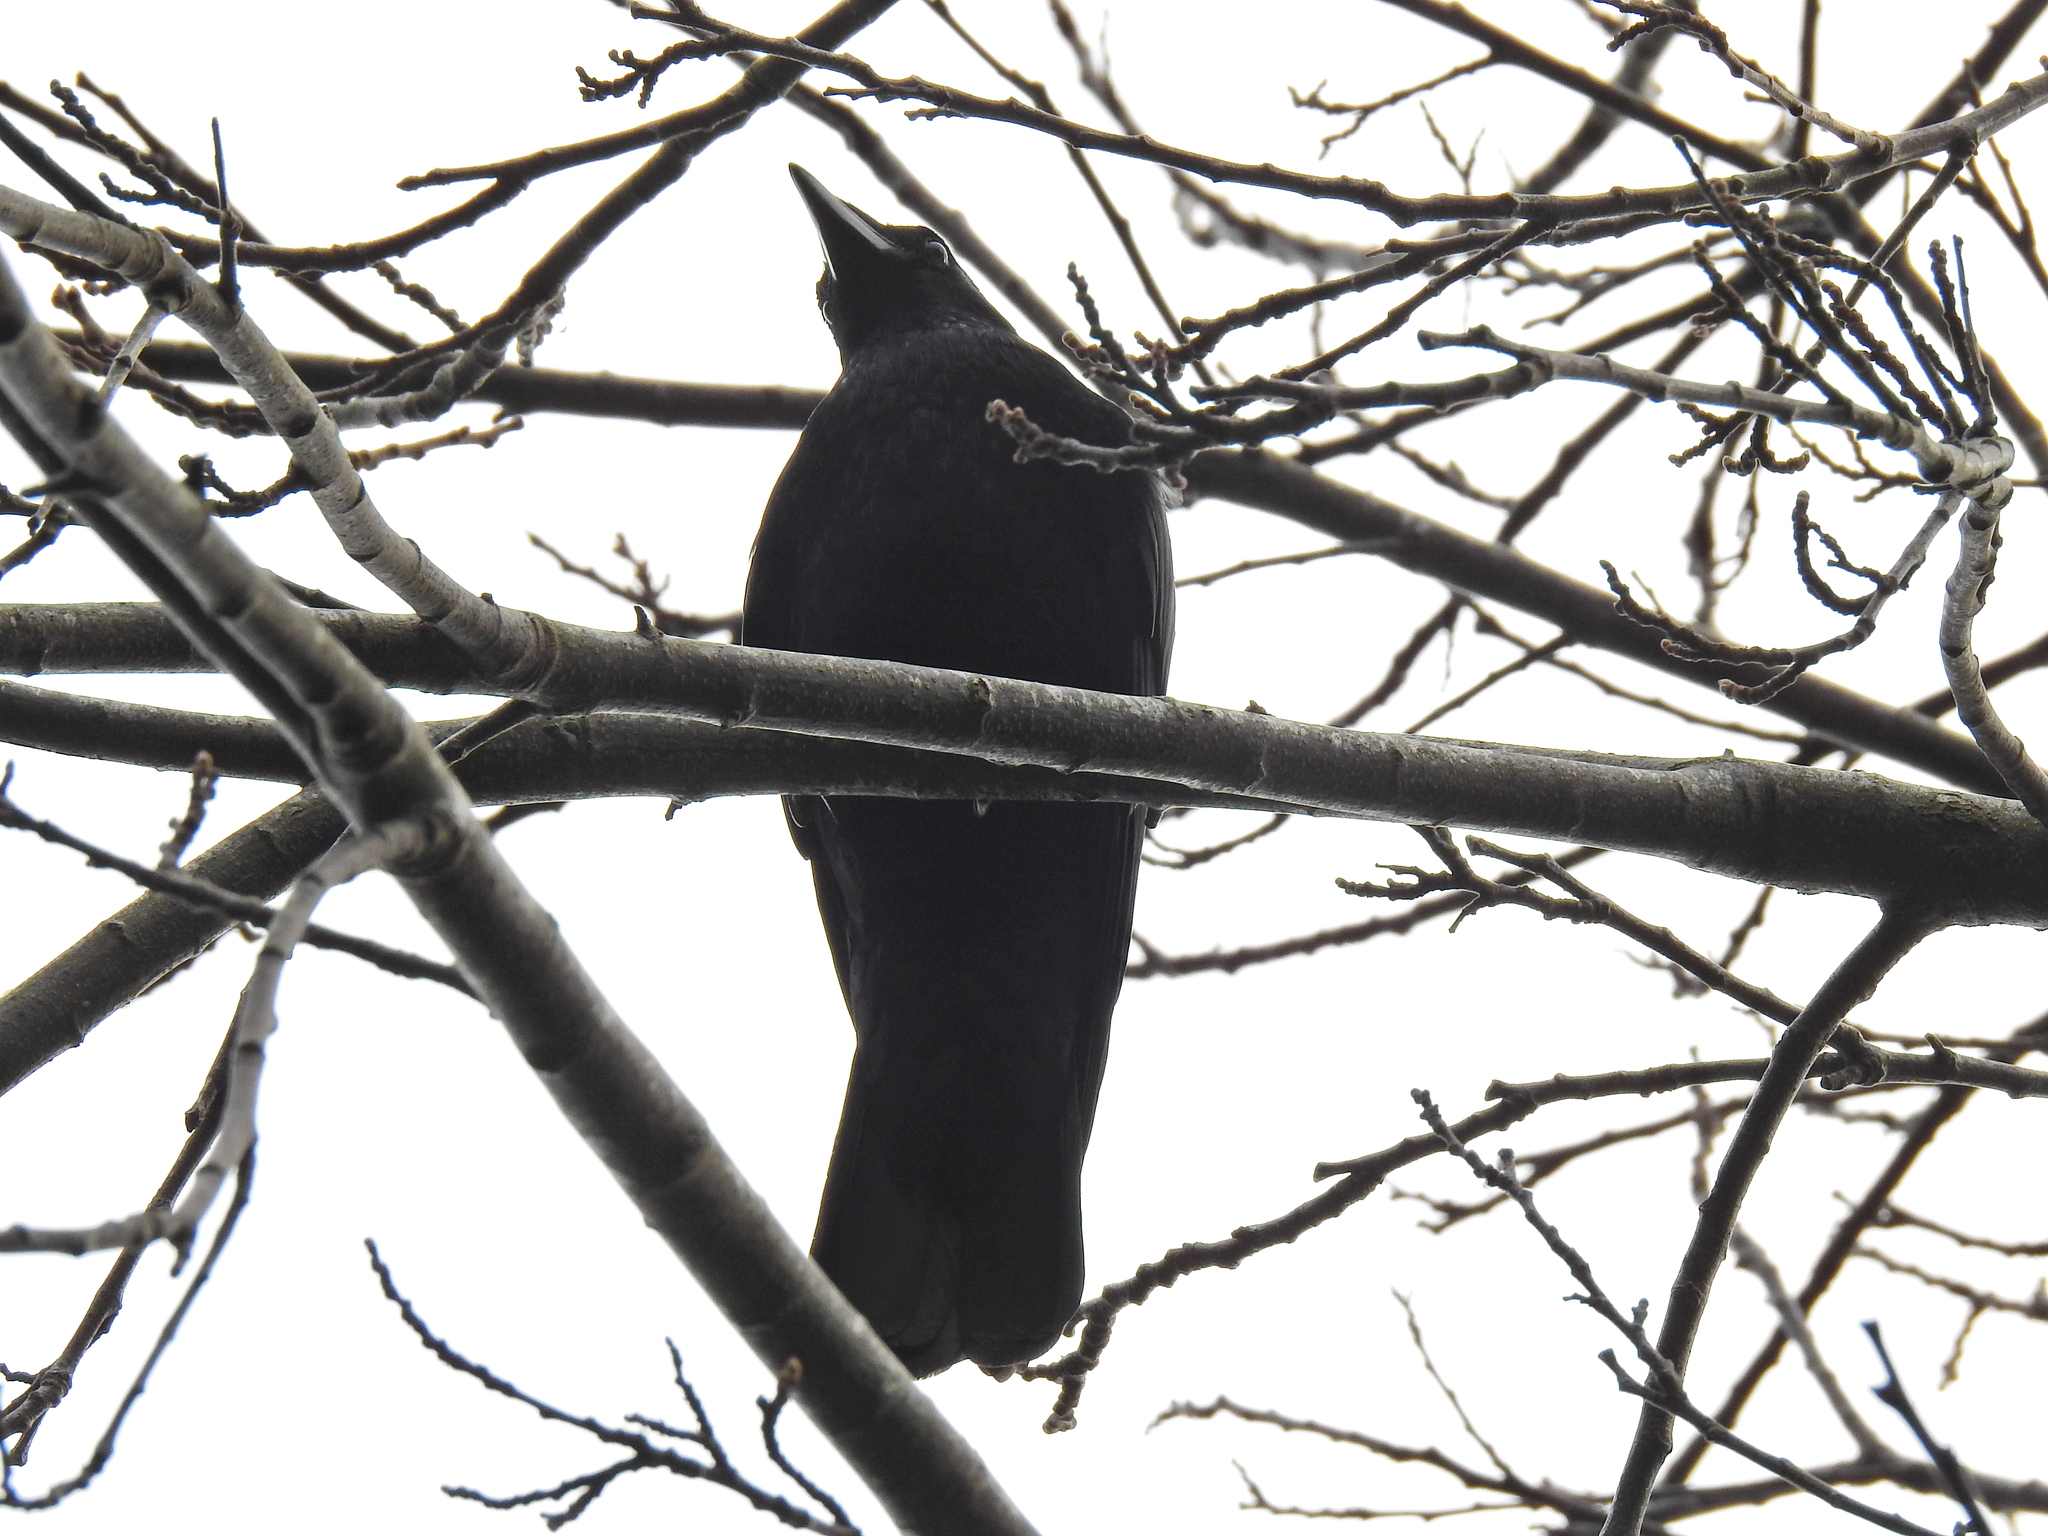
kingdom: Animalia
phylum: Chordata
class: Aves
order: Passeriformes
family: Corvidae
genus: Corvus
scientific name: Corvus corone
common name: Carrion crow
